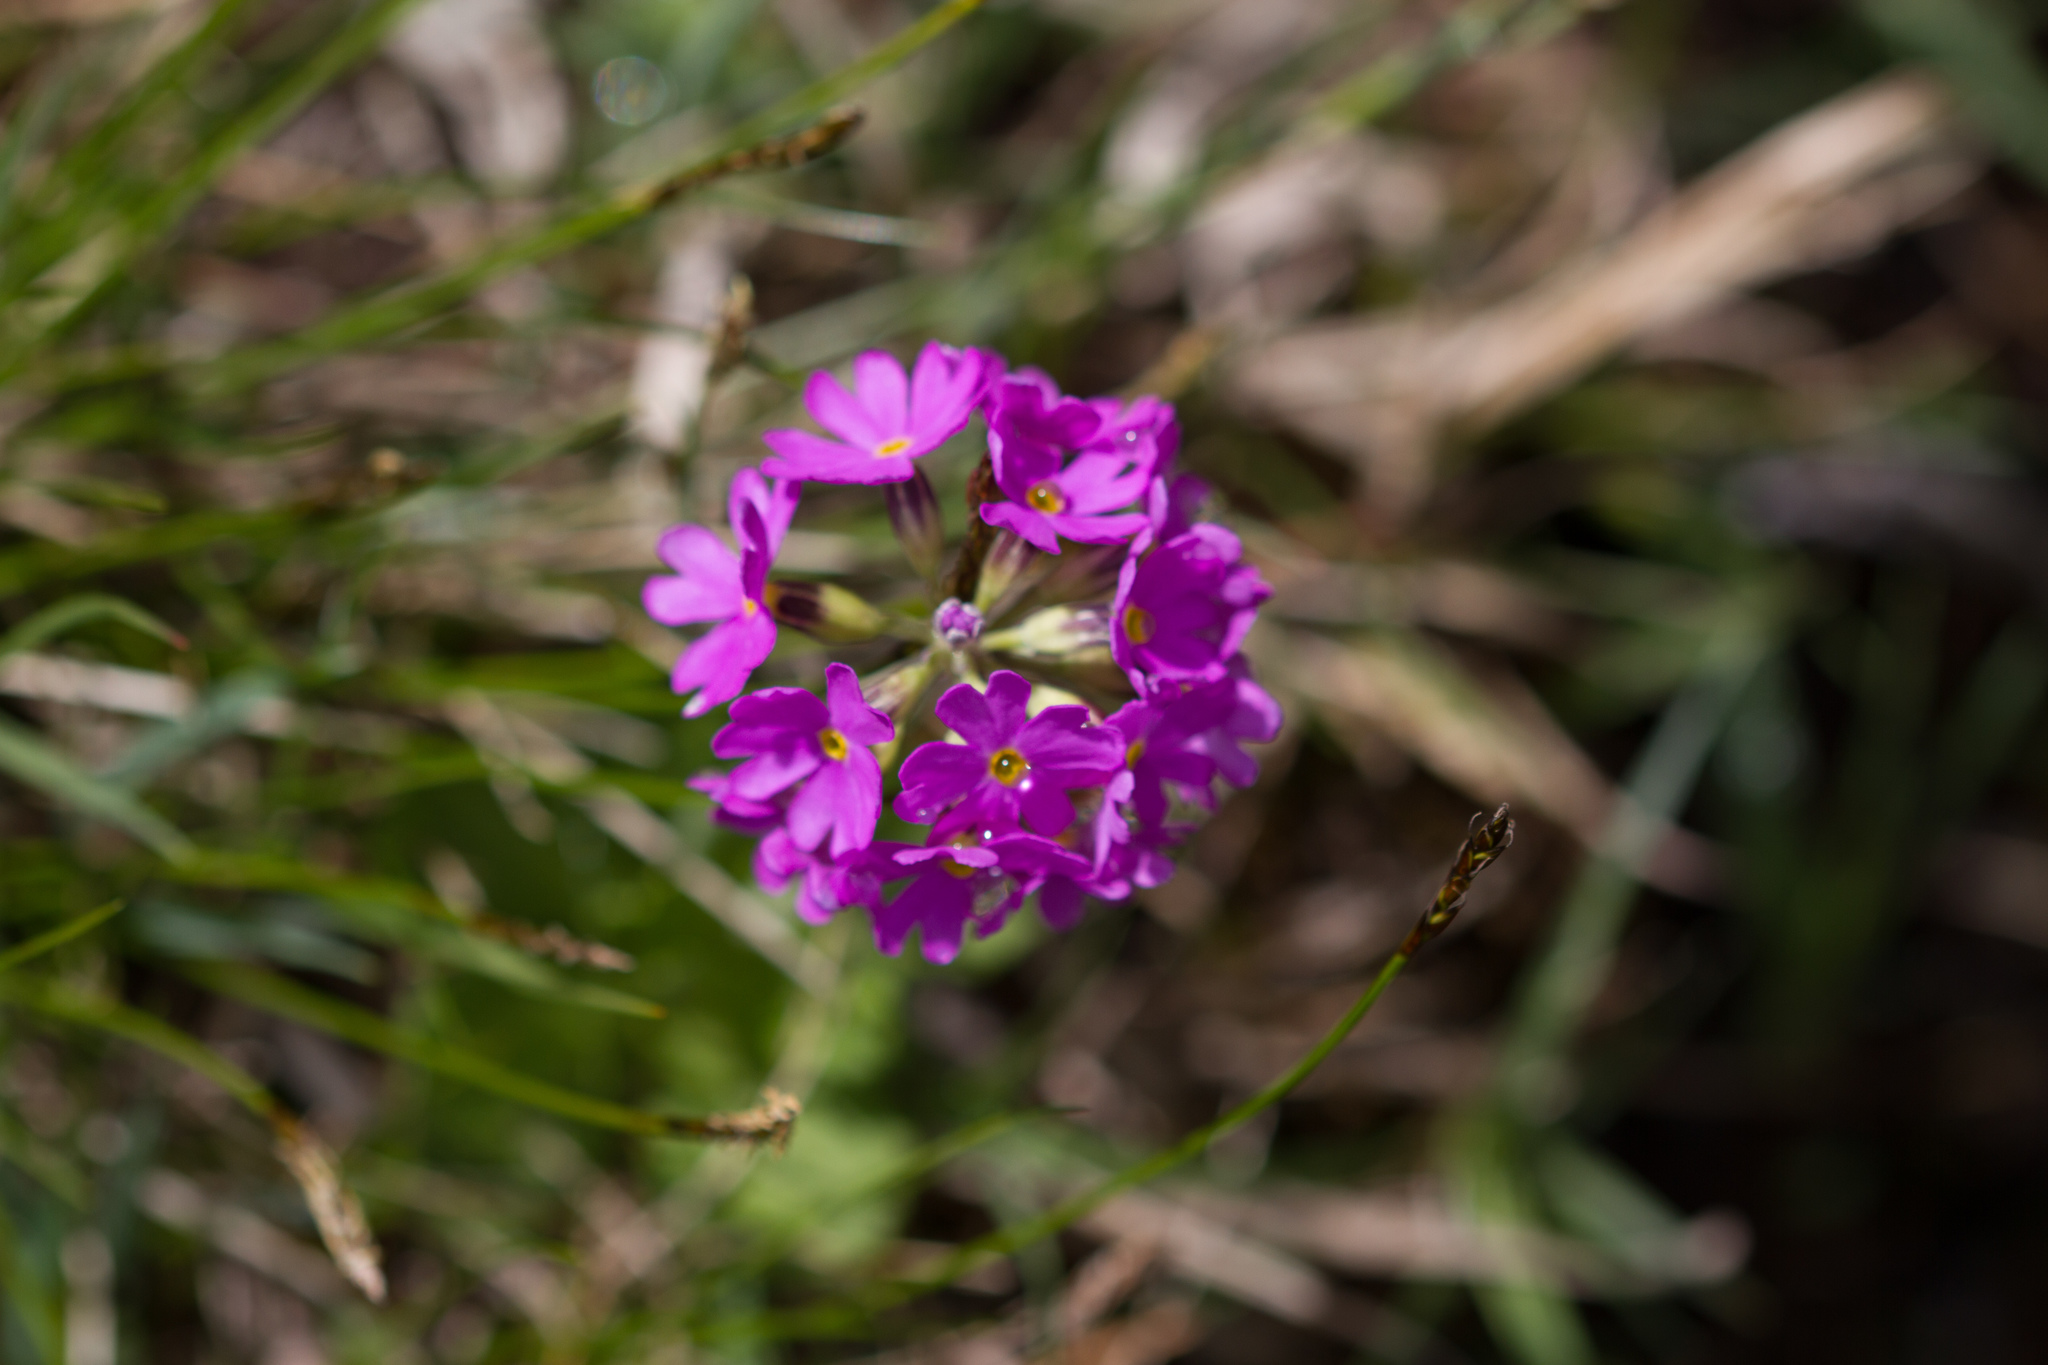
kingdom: Plantae
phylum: Tracheophyta
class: Magnoliopsida
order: Ericales
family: Primulaceae
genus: Primula
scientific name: Primula farinosa
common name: Bird's-eye primrose
